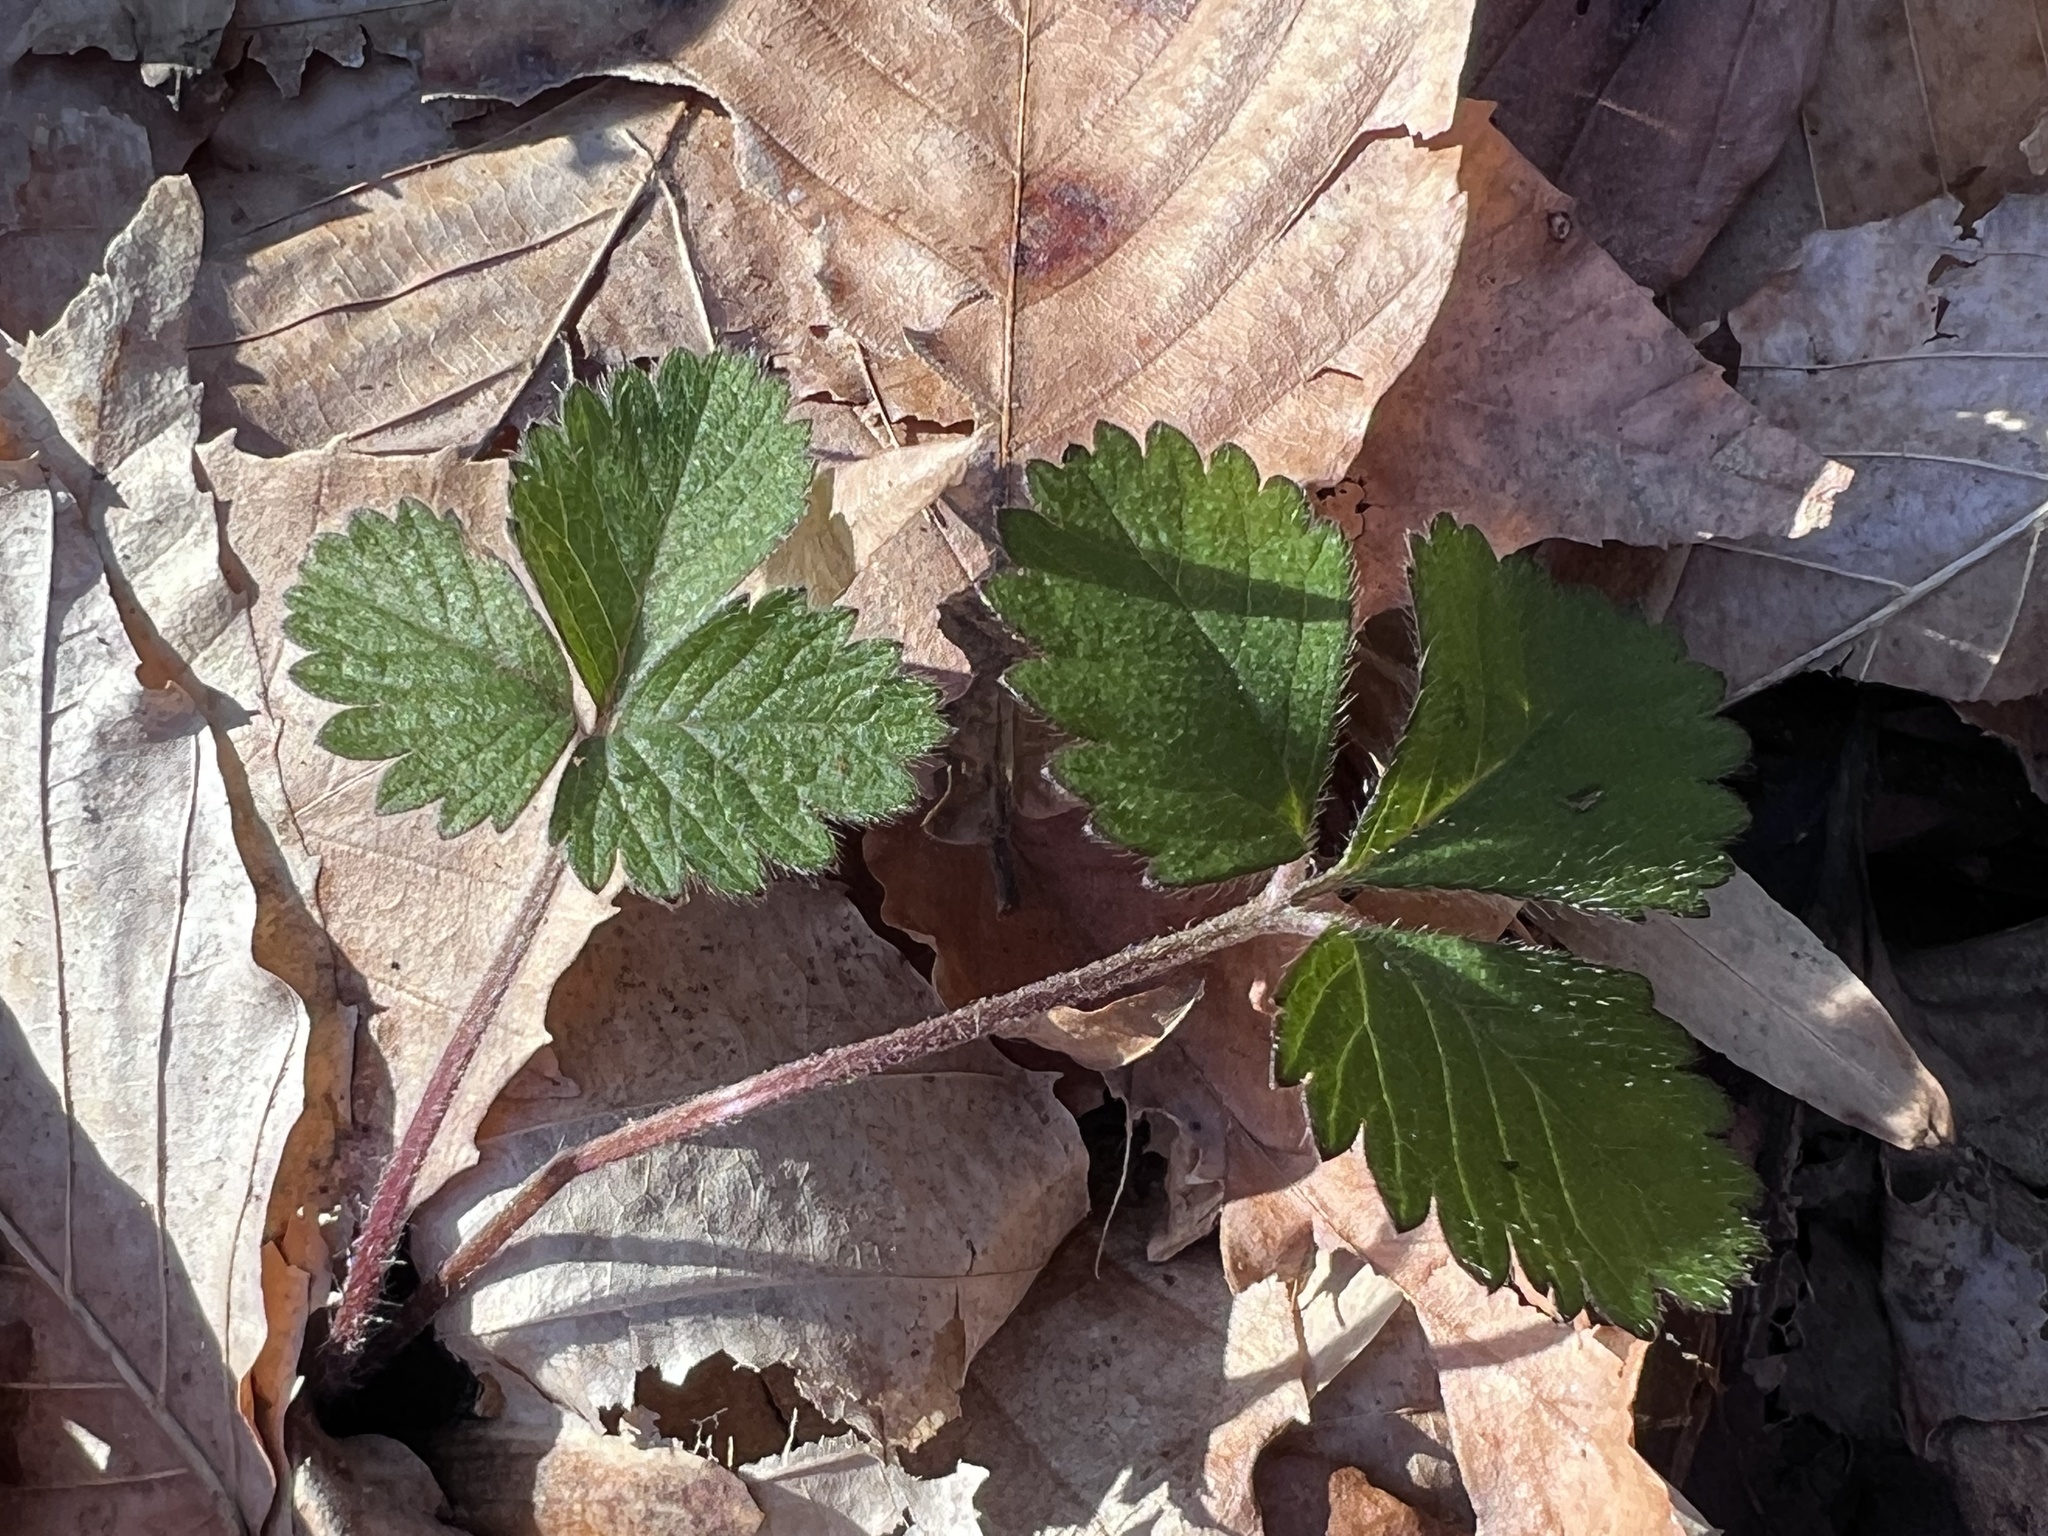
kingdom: Plantae
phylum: Tracheophyta
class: Magnoliopsida
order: Rosales
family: Rosaceae
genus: Potentilla
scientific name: Potentilla indica
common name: Yellow-flowered strawberry
